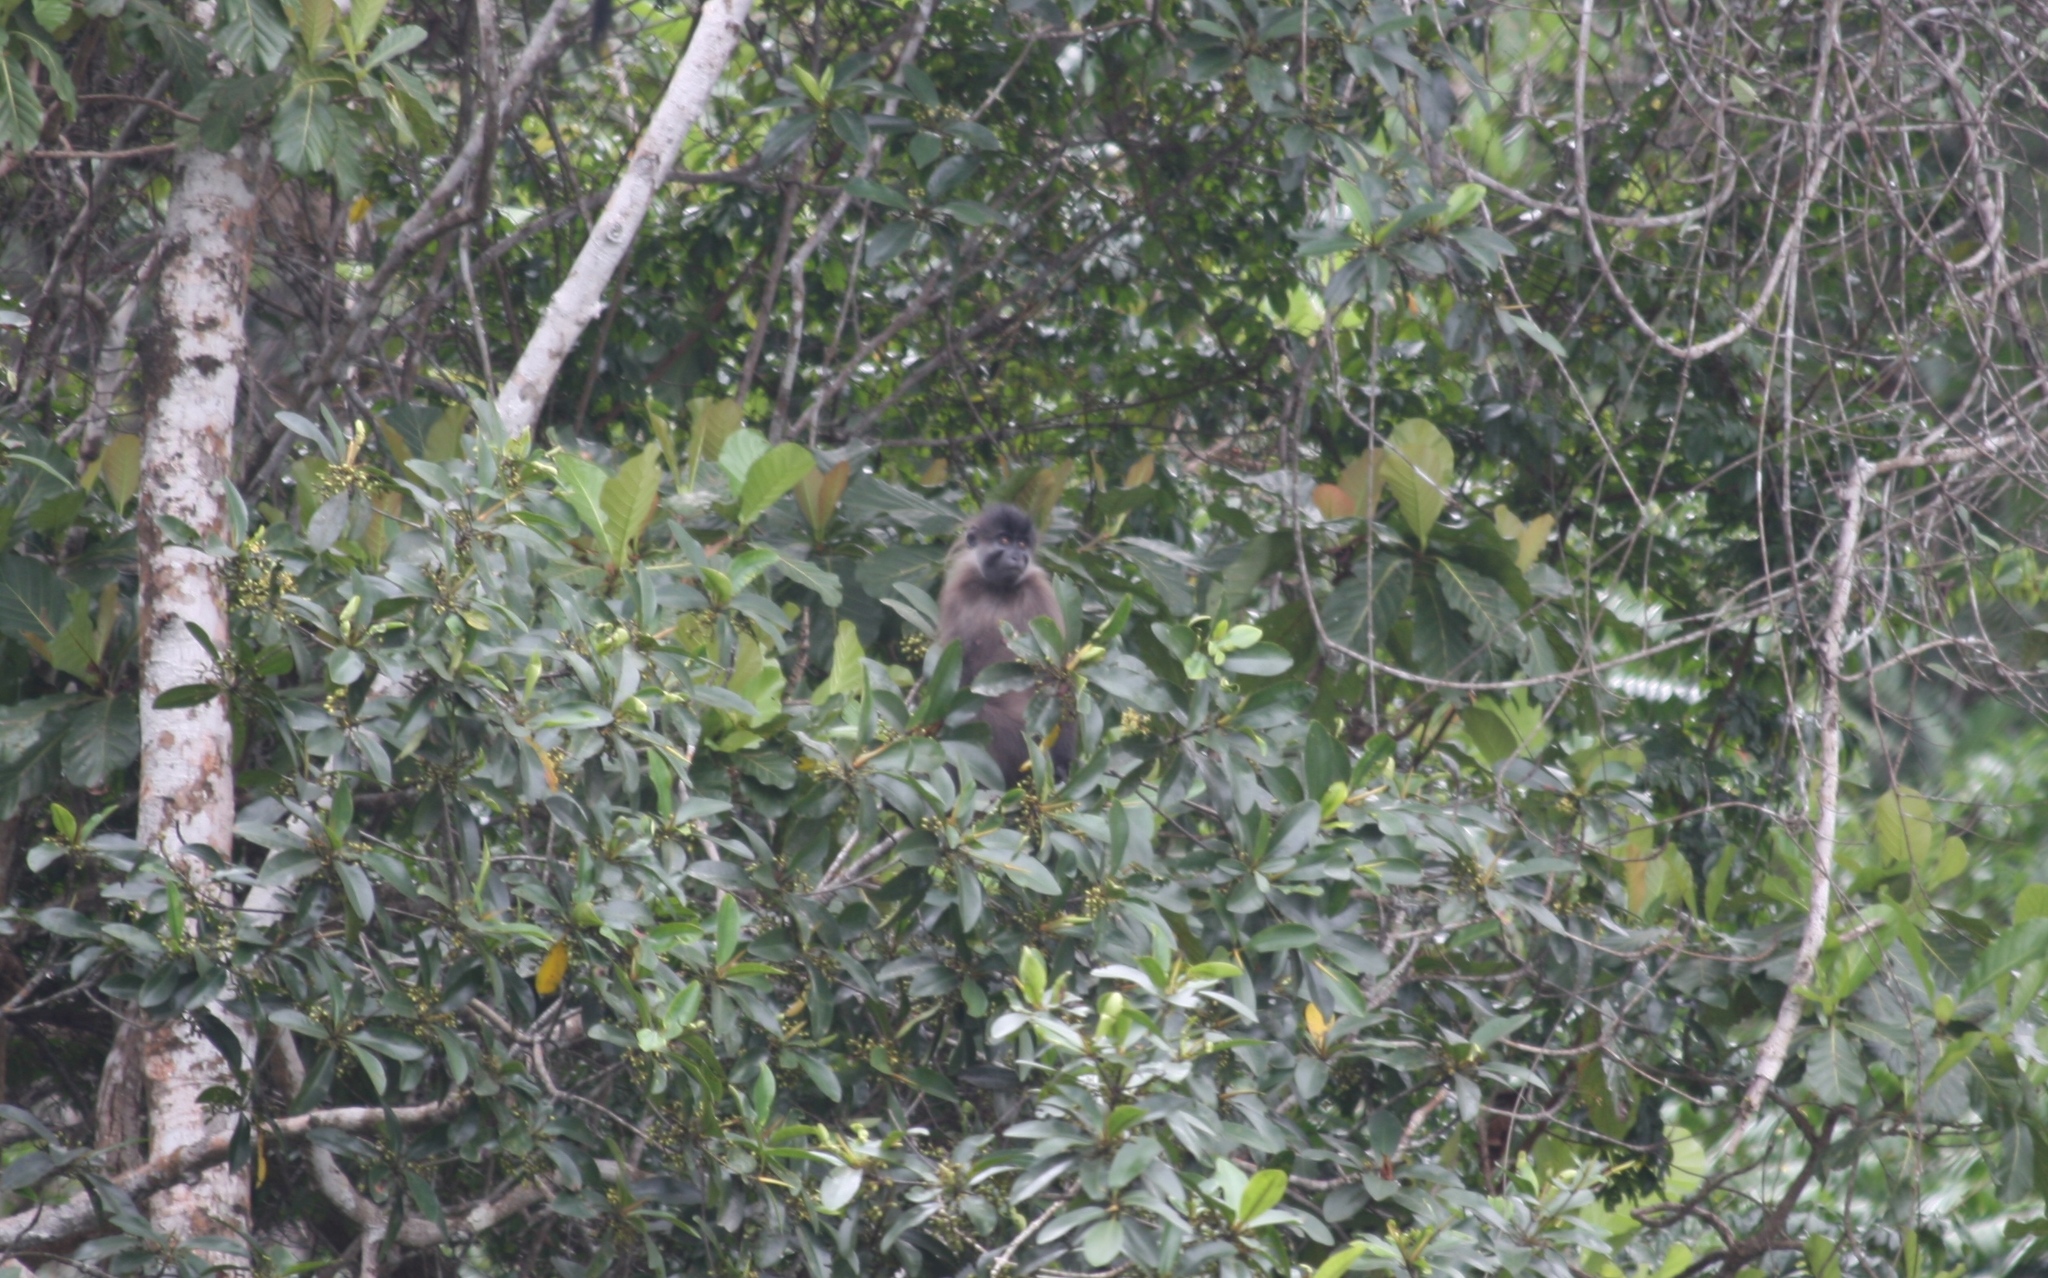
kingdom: Animalia
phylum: Chordata
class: Mammalia
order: Primates
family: Cercopithecidae
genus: Lophocebus
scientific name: Lophocebus albigena
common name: Gray-cheeked mangabey
